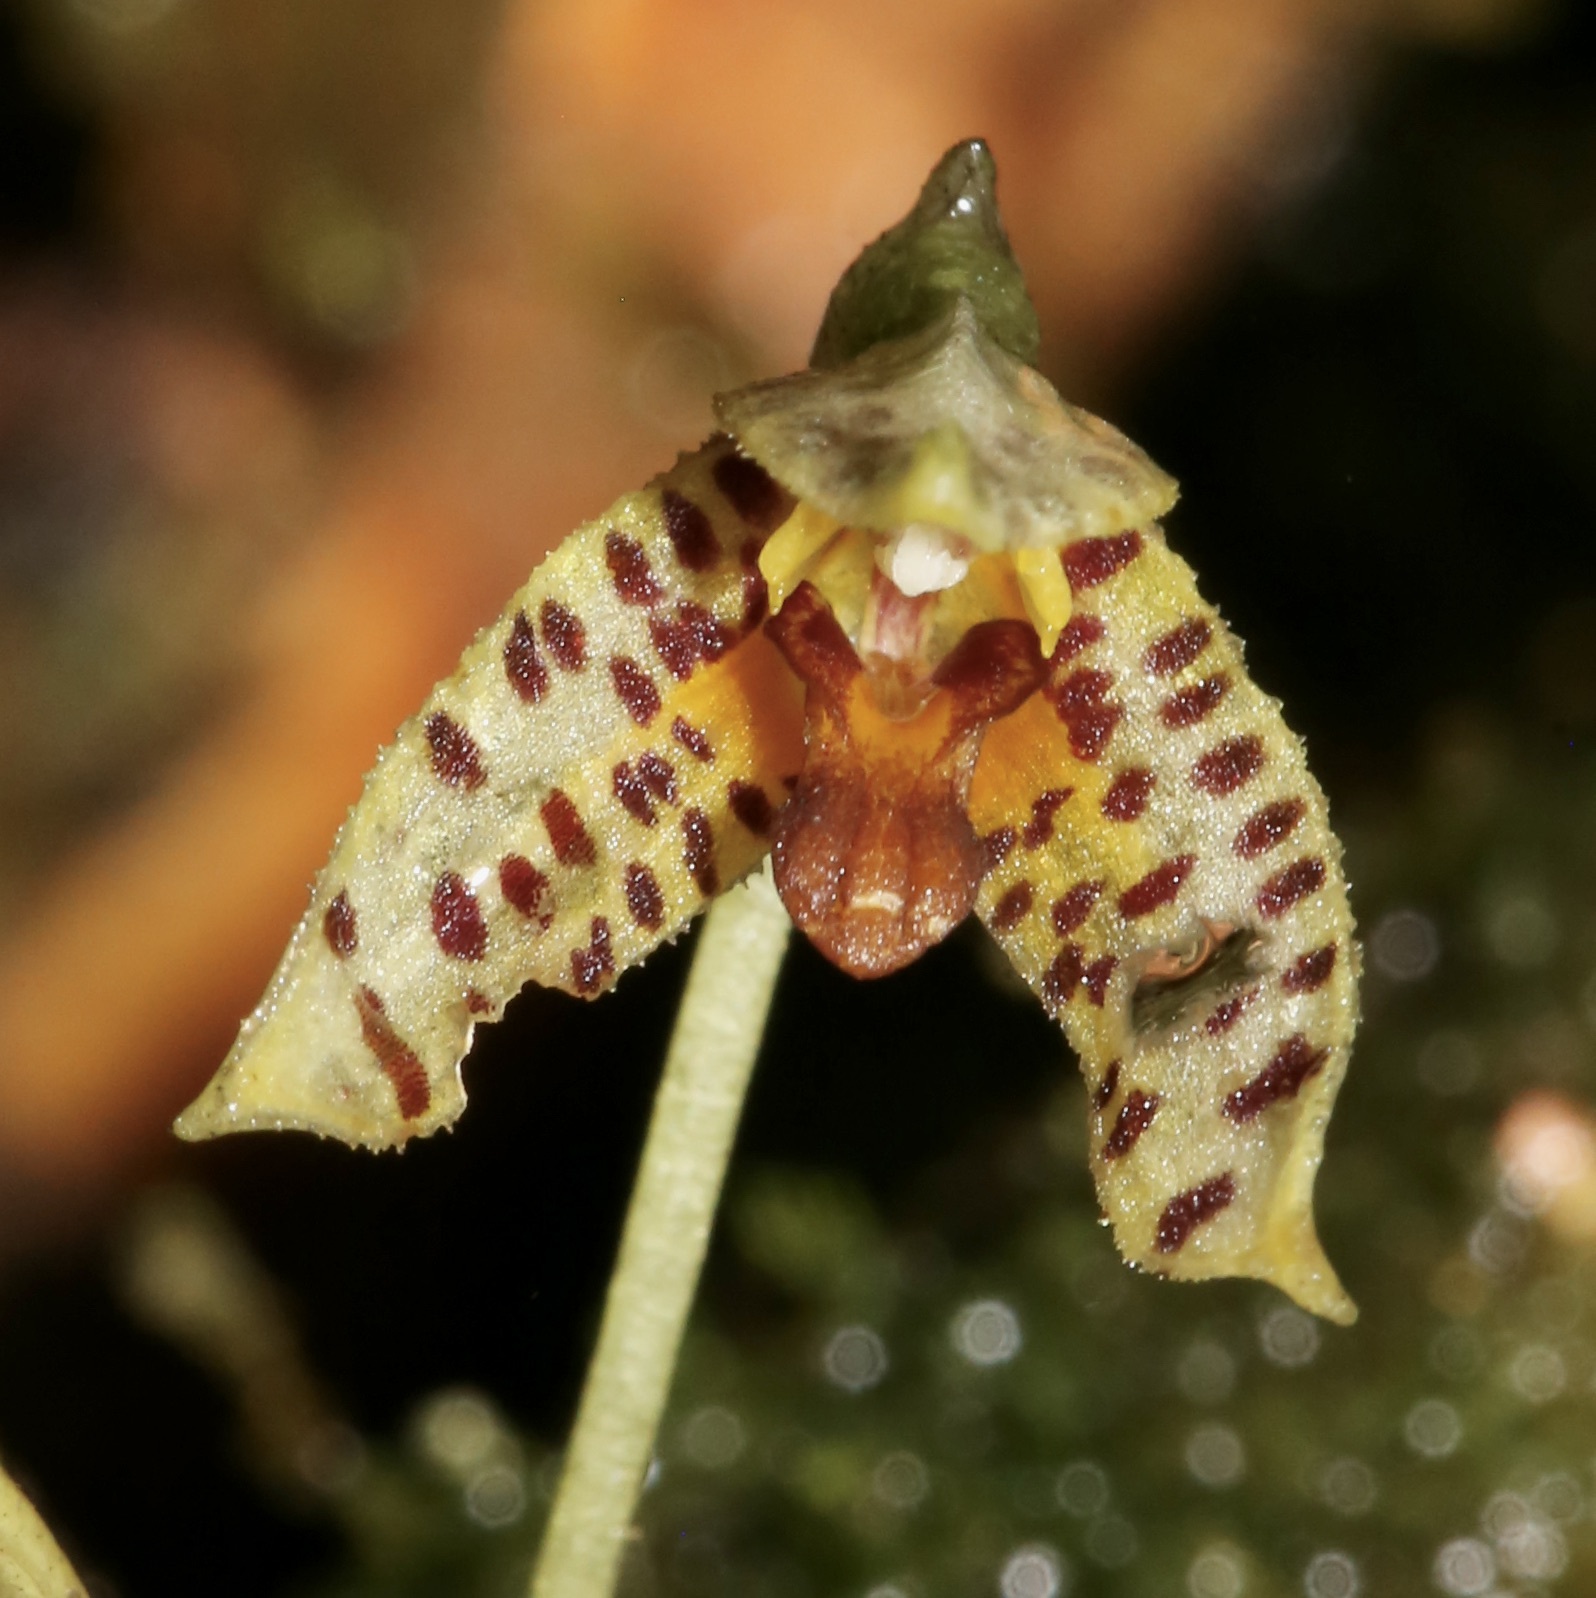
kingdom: Plantae
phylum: Tracheophyta
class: Liliopsida
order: Asparagales
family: Orchidaceae
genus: Masdevallia
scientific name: Masdevallia mutica
